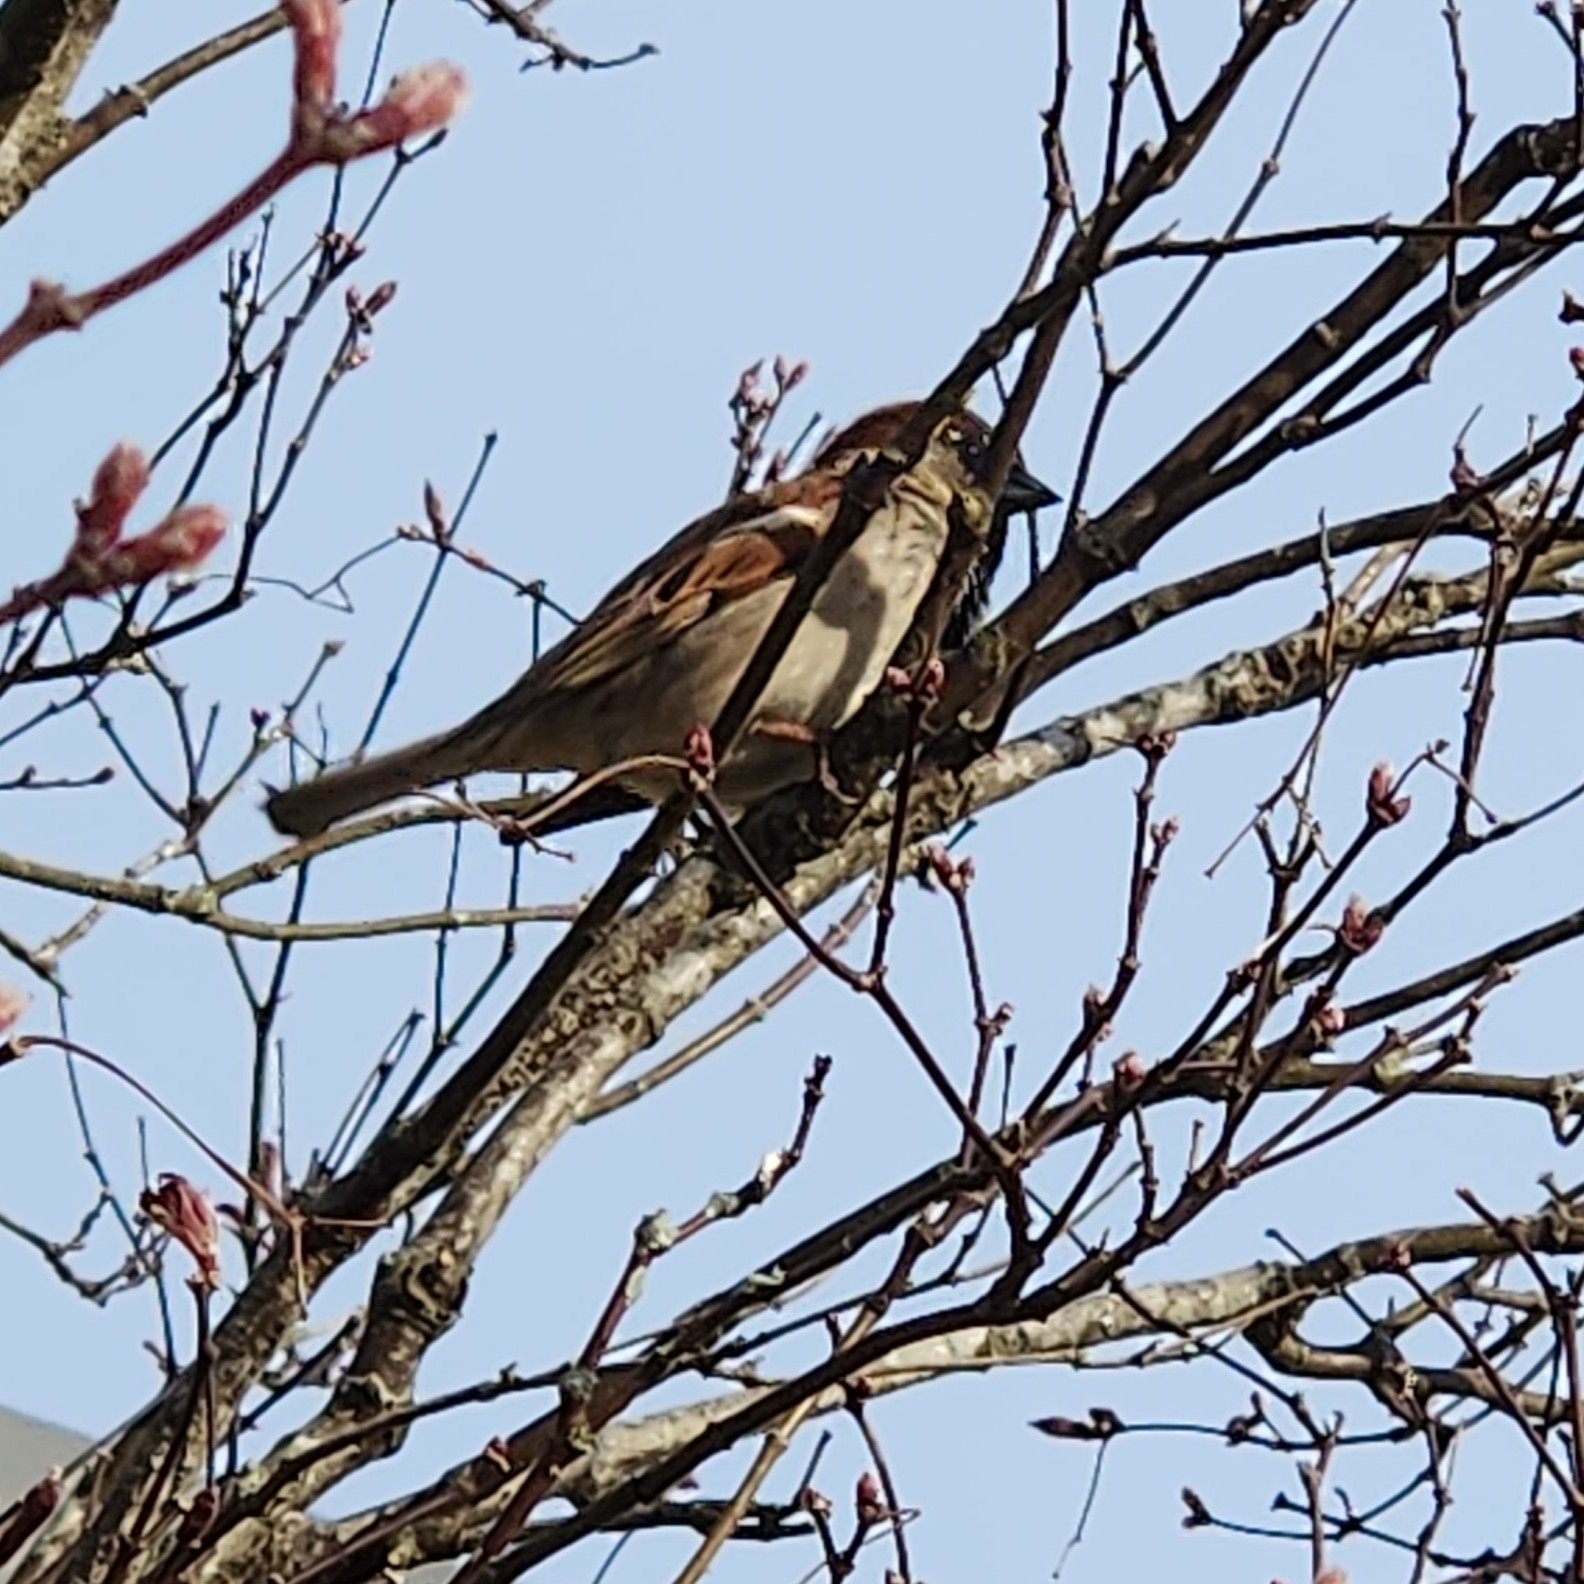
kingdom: Animalia
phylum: Chordata
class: Aves
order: Passeriformes
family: Passeridae
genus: Passer
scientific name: Passer domesticus
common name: House sparrow
